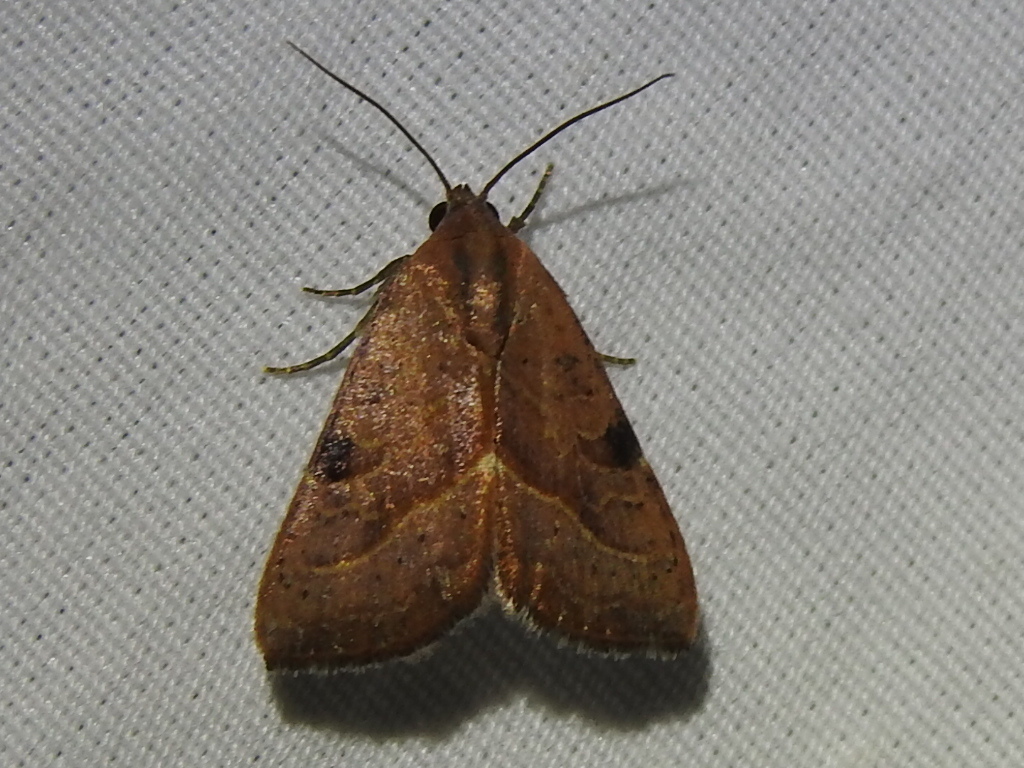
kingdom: Animalia
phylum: Arthropoda
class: Insecta
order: Lepidoptera
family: Noctuidae
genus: Galgula
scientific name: Galgula partita
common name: Wedgeling
